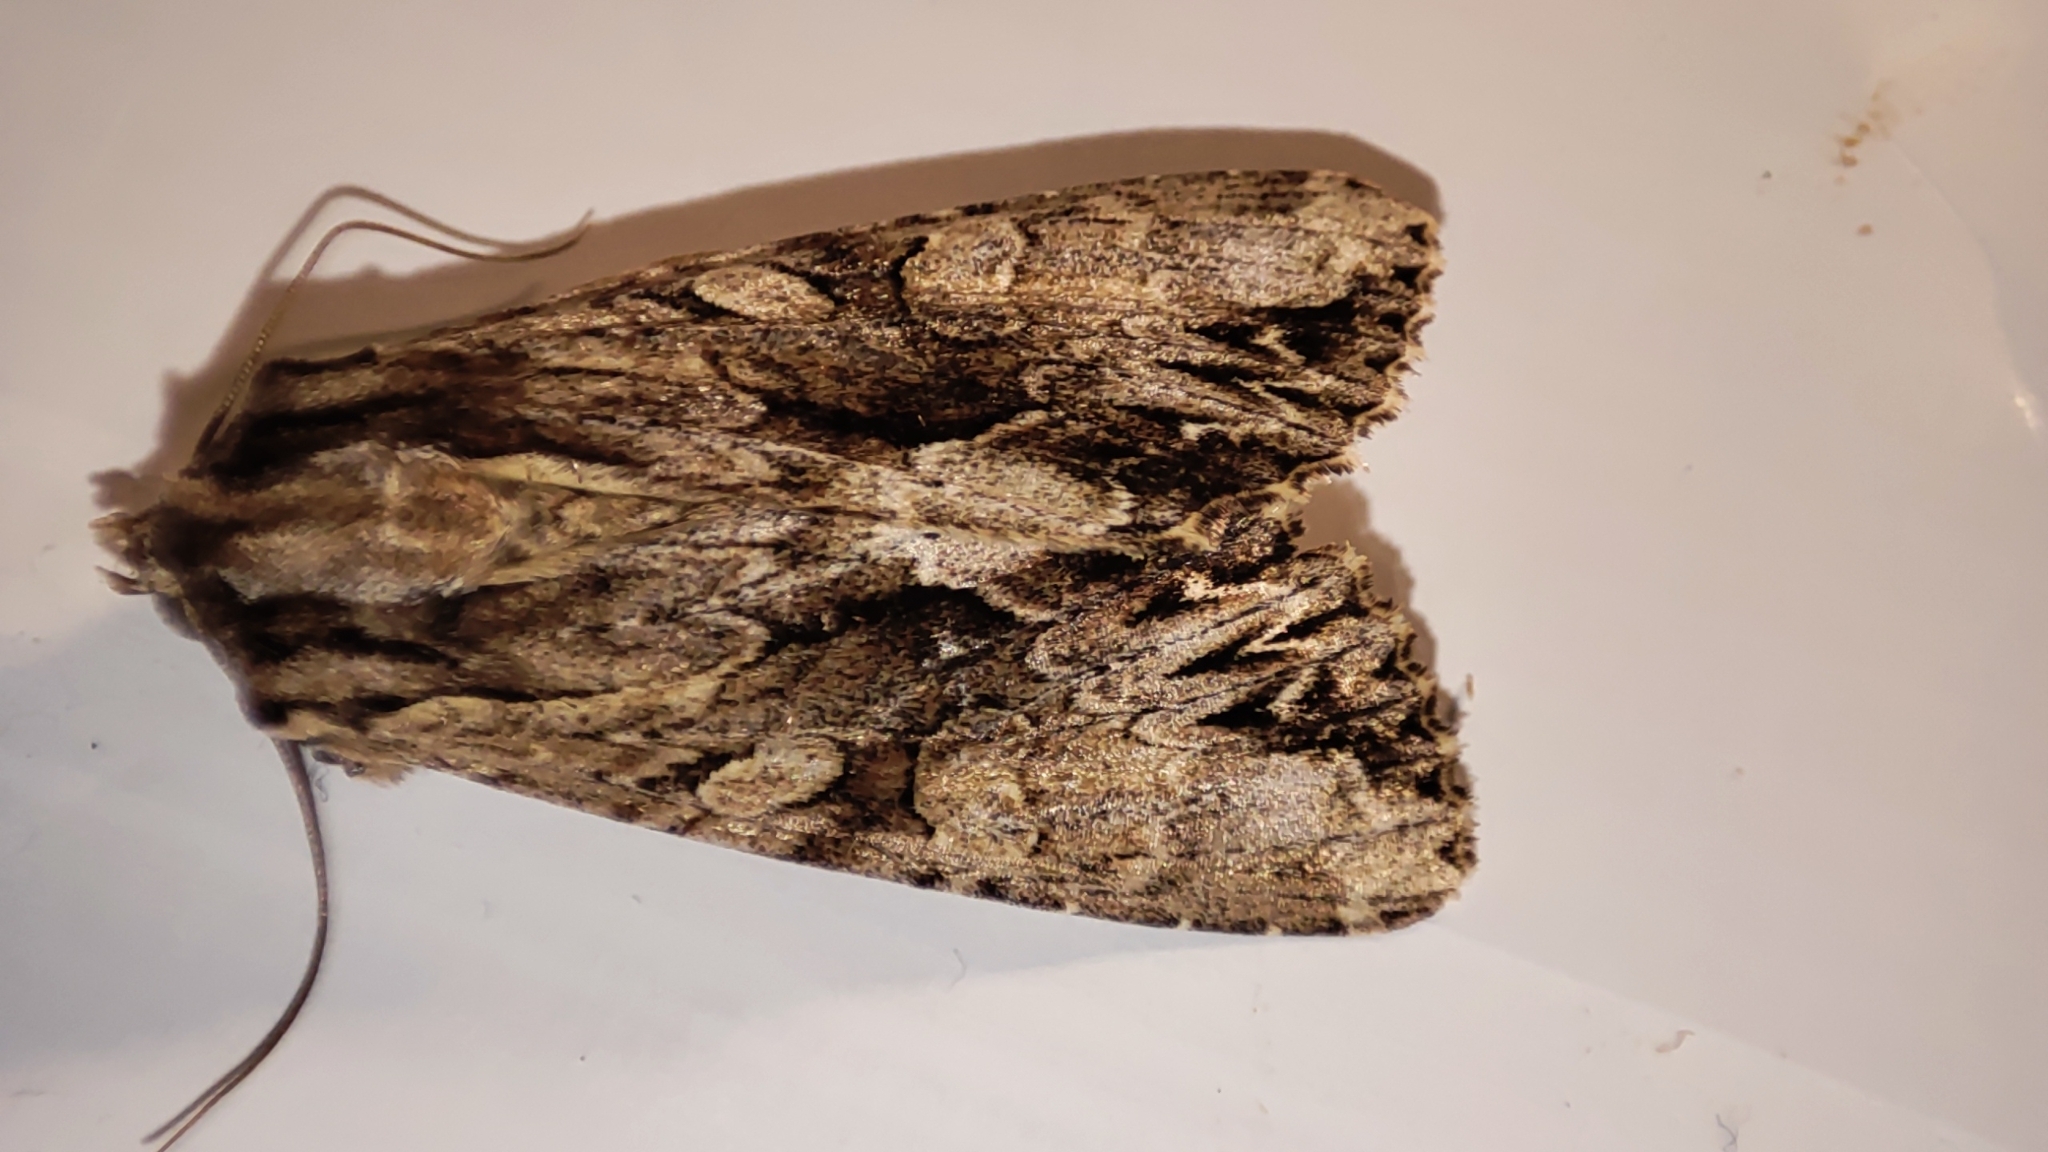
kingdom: Animalia
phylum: Arthropoda
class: Insecta
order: Lepidoptera
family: Noctuidae
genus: Apamea
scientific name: Apamea monoglypha
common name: Dark arches
